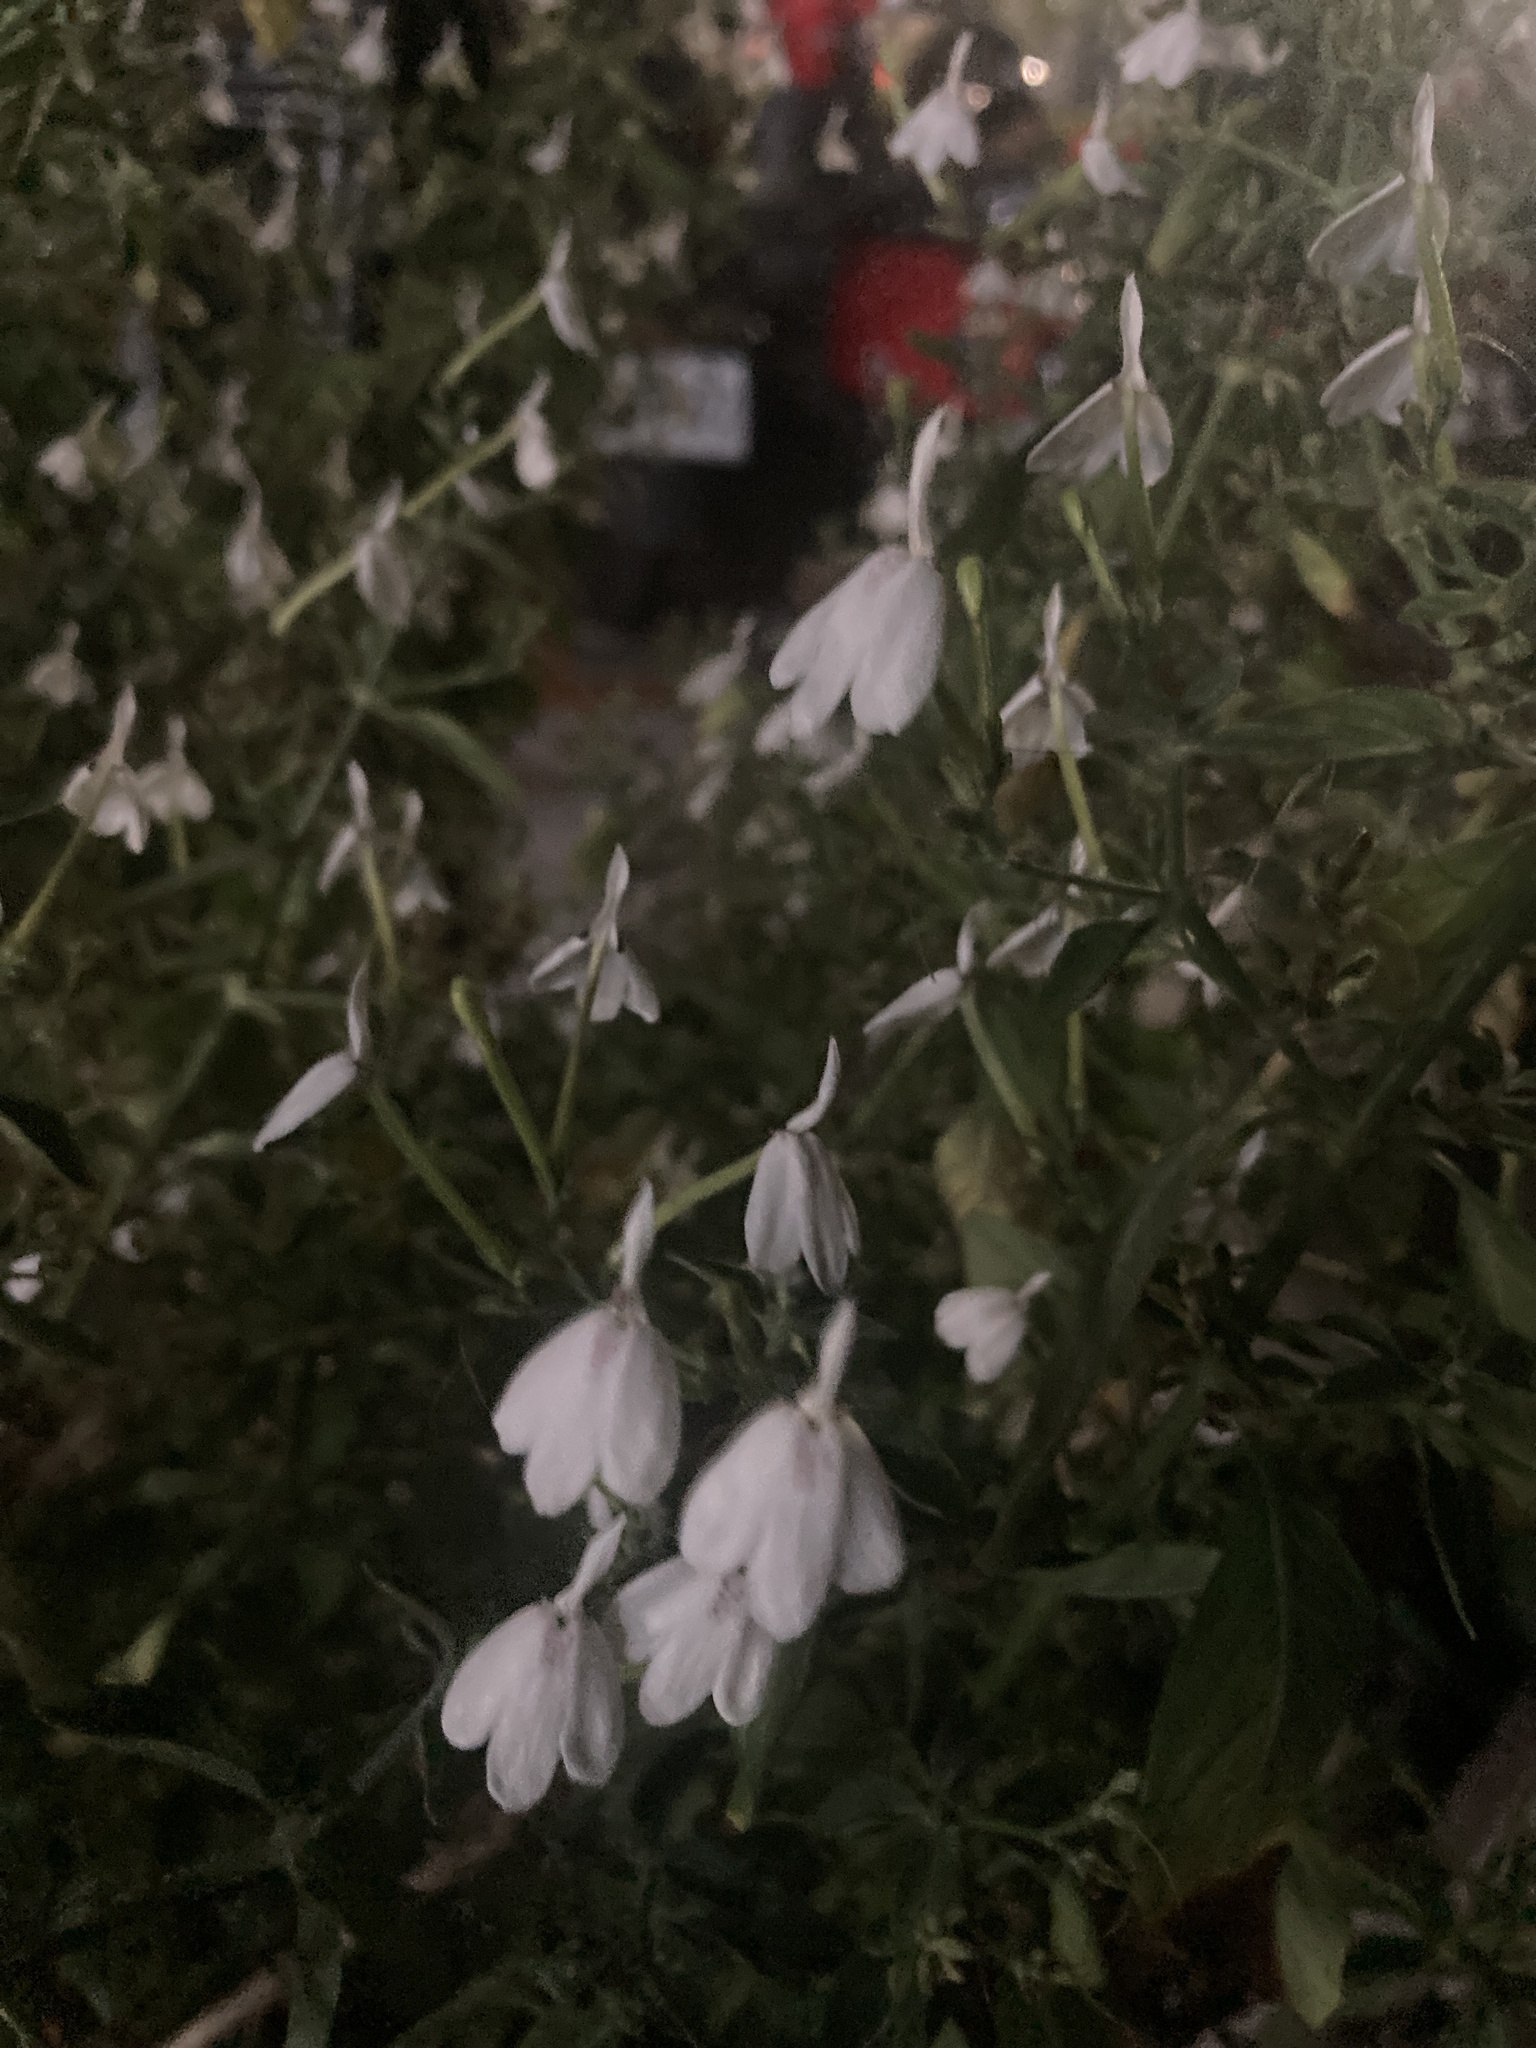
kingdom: Plantae
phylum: Tracheophyta
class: Magnoliopsida
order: Lamiales
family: Acanthaceae
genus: Rhinacanthus
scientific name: Rhinacanthus nasutus
